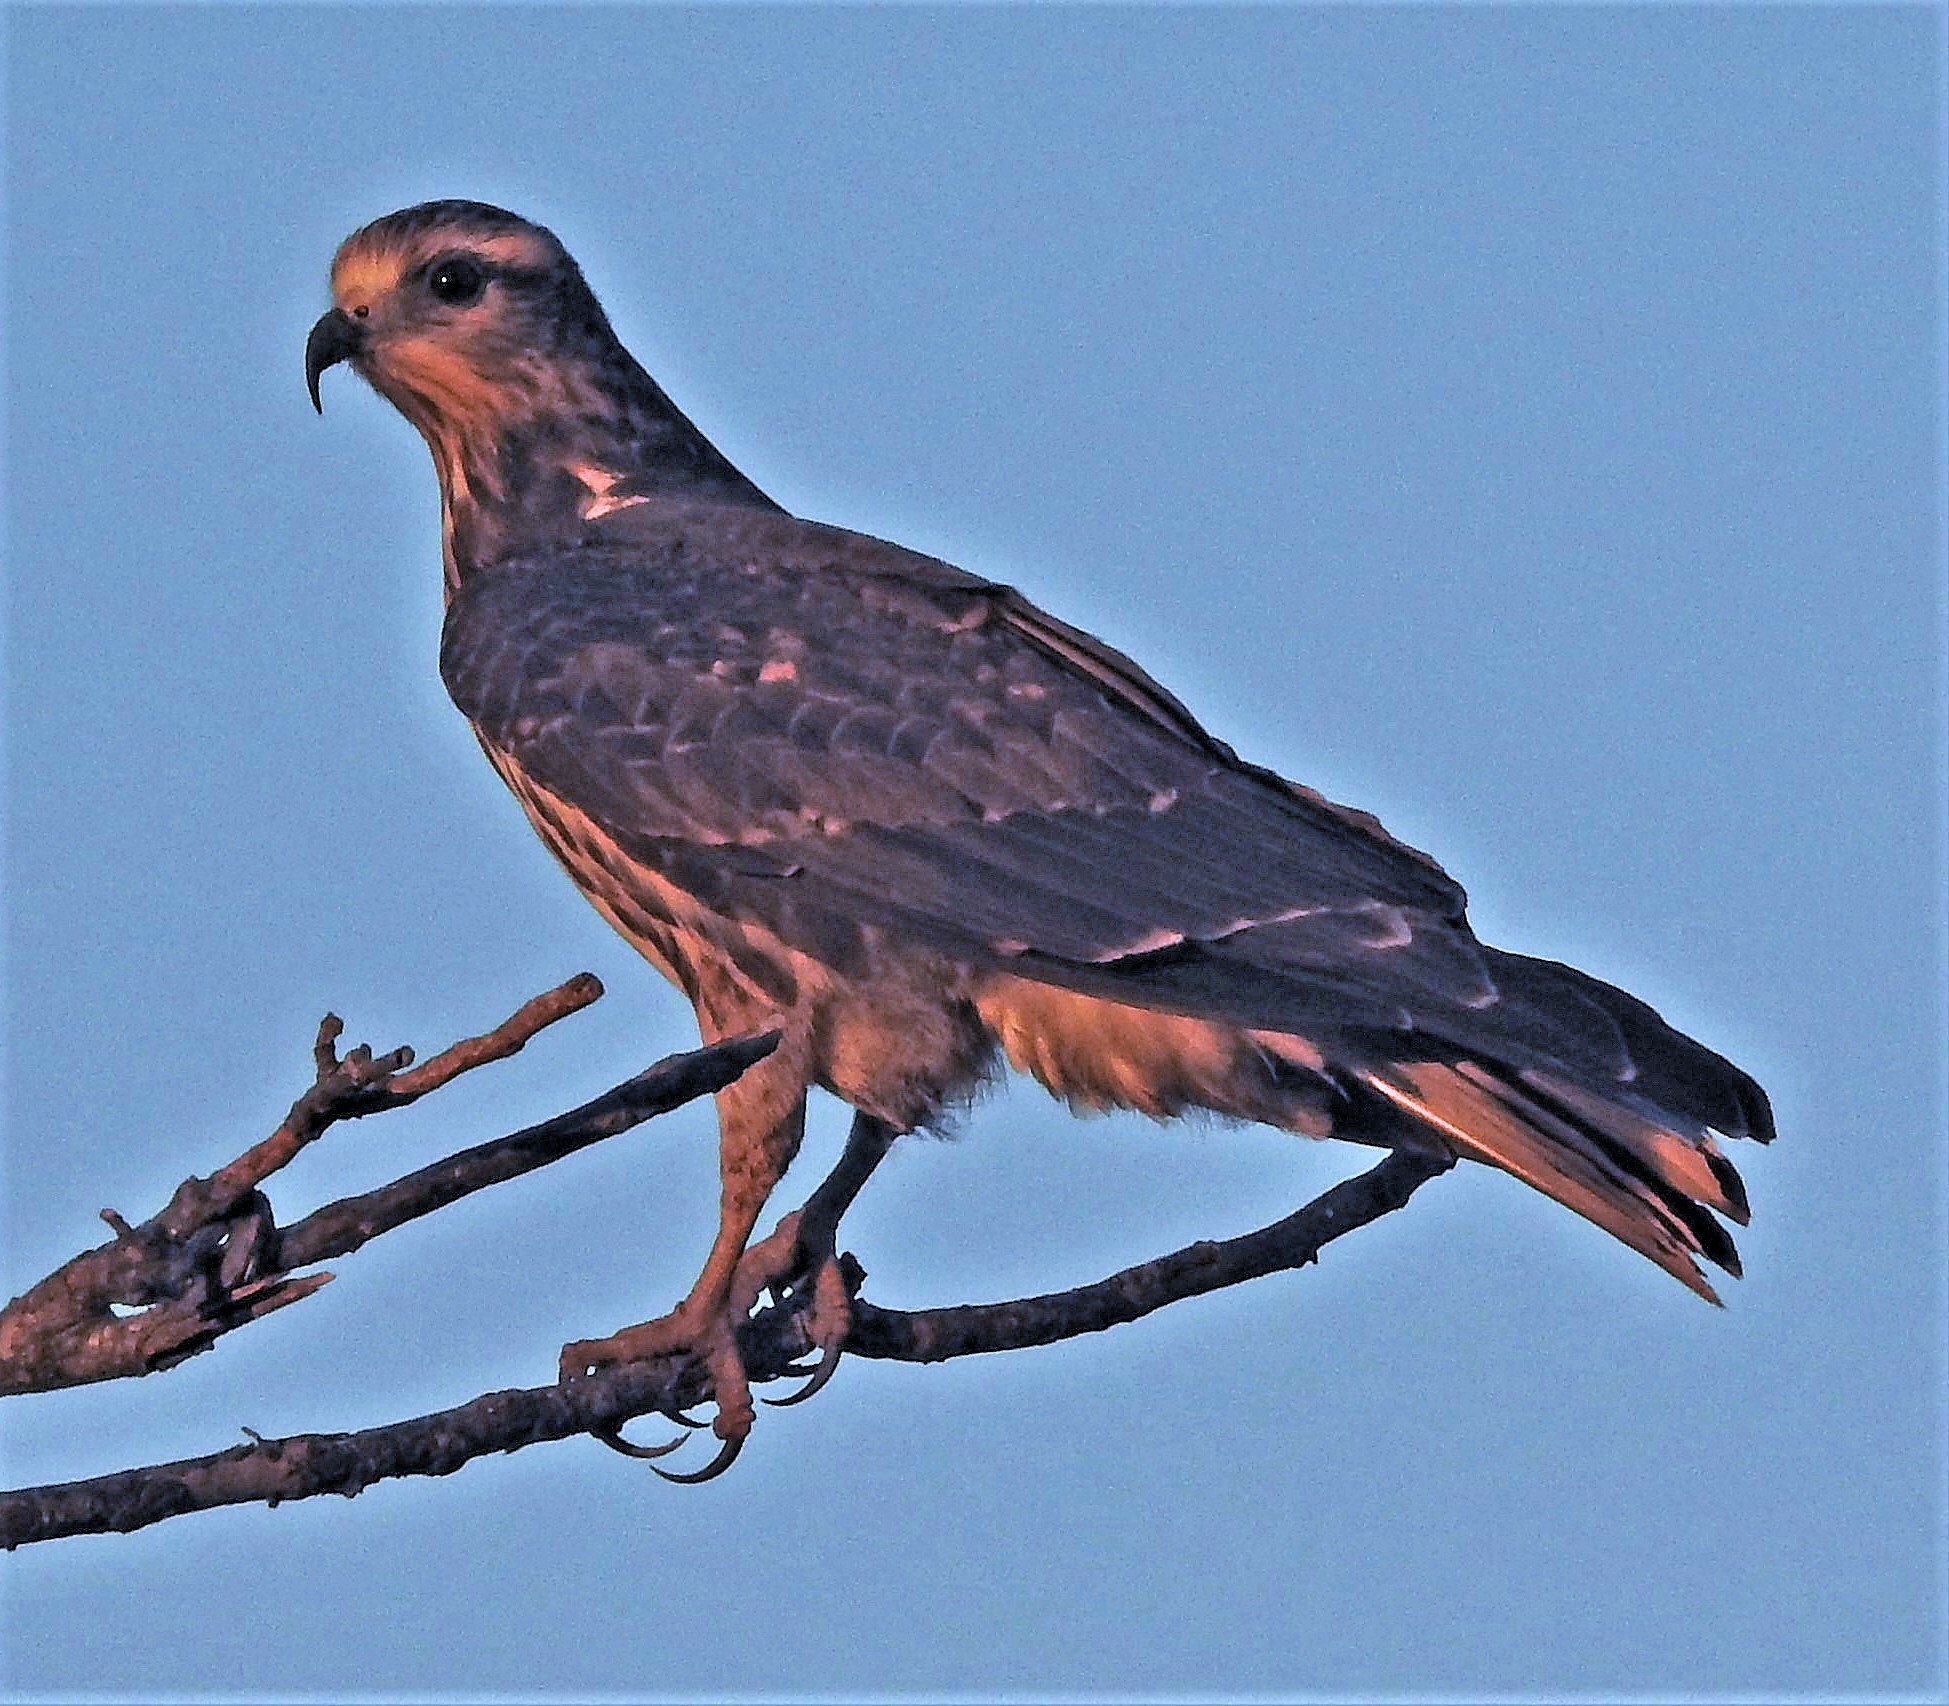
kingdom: Animalia
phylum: Chordata
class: Aves
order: Accipitriformes
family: Accipitridae
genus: Rostrhamus
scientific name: Rostrhamus sociabilis
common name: Snail kite
